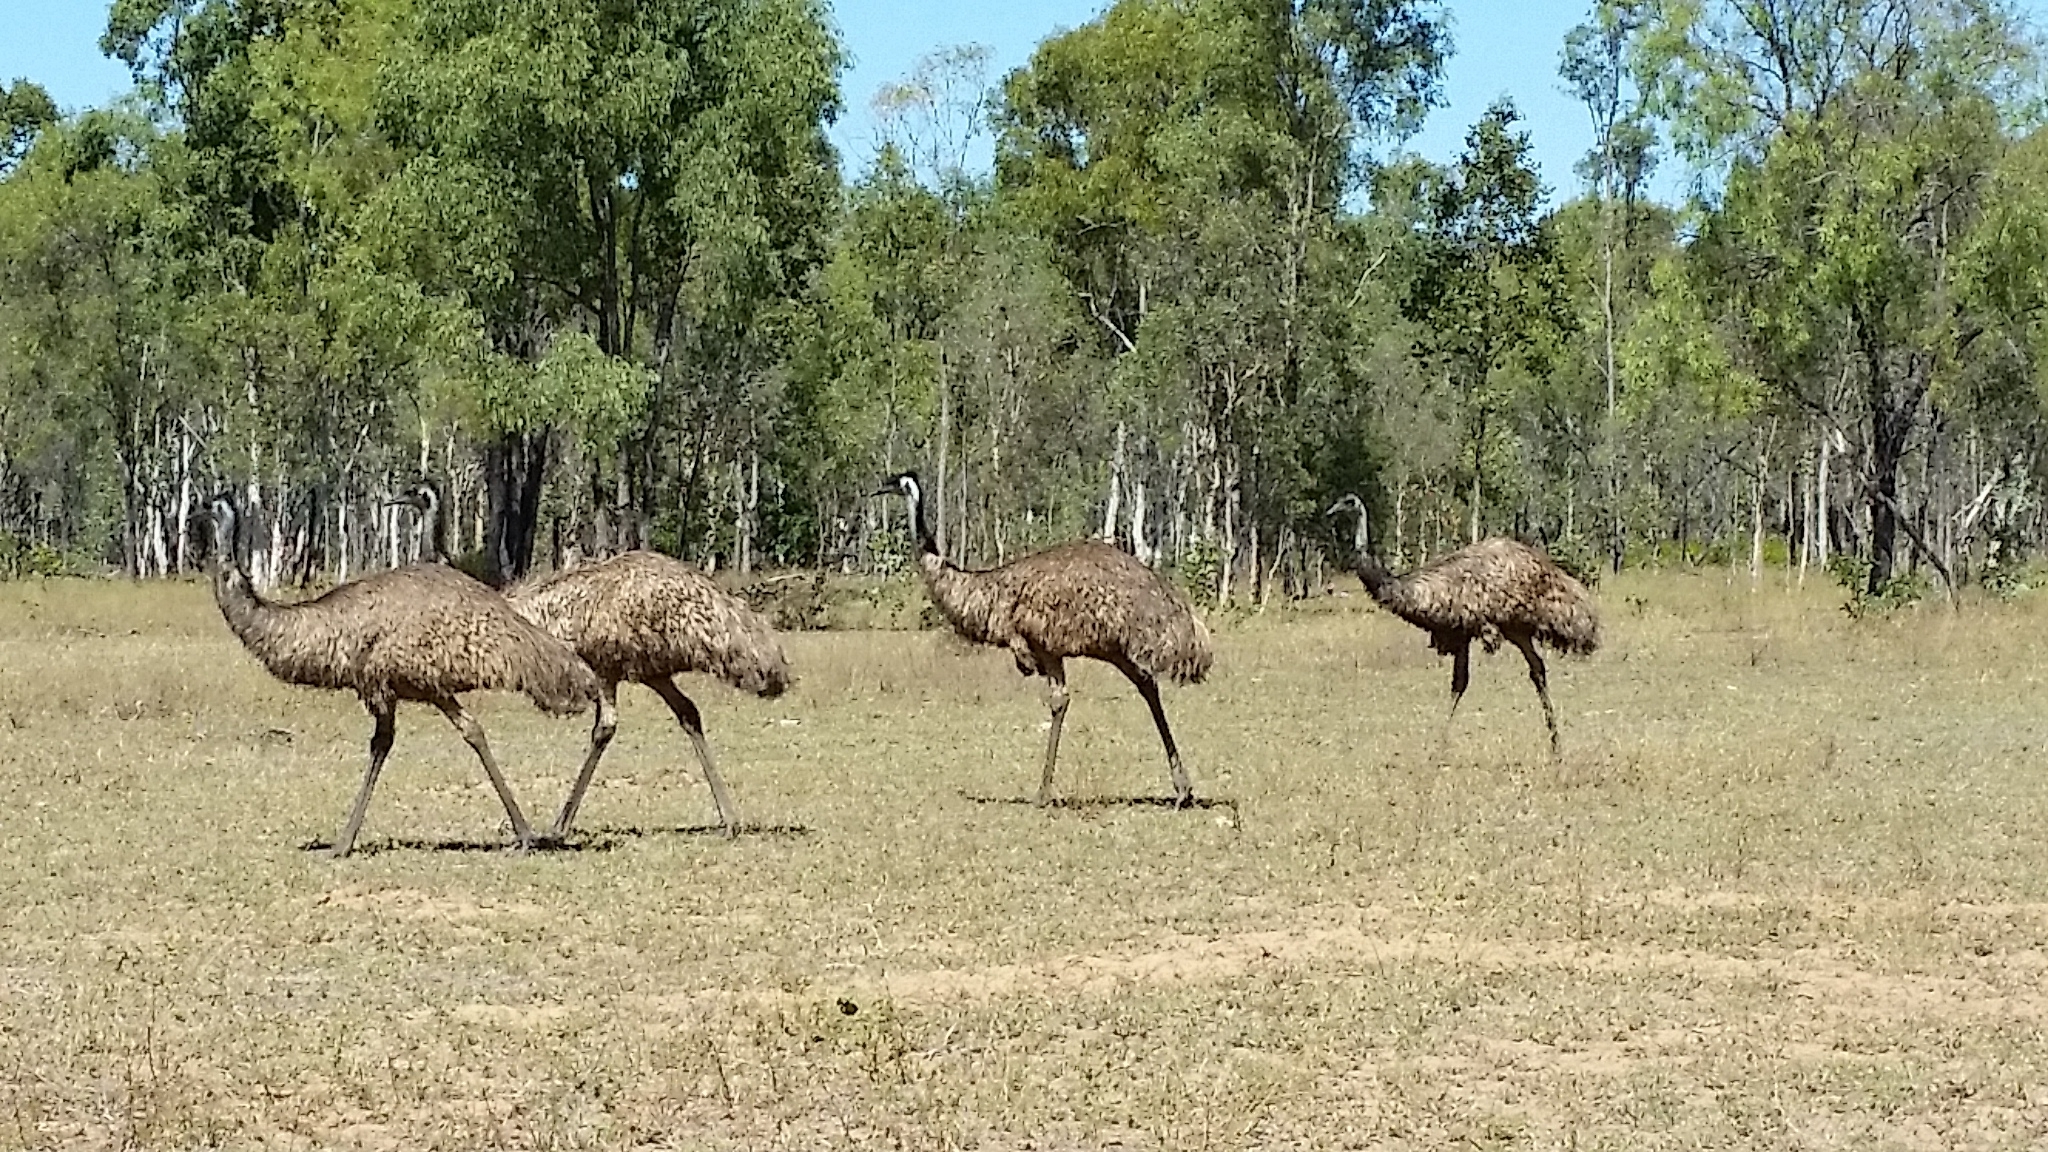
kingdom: Animalia
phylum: Chordata
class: Aves
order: Casuariiformes
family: Dromaiidae
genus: Dromaius
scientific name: Dromaius novaehollandiae
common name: Emu
